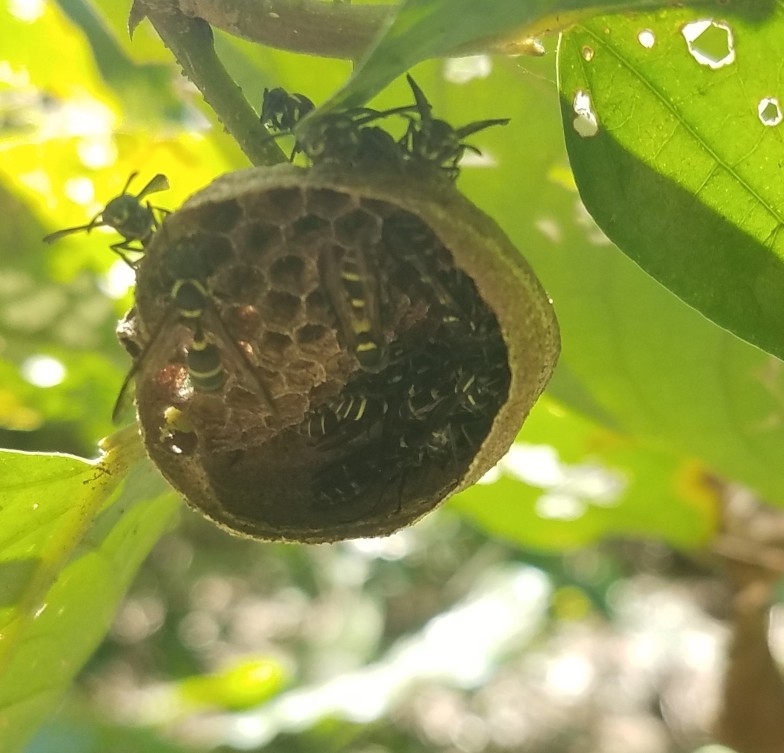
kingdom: Animalia
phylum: Arthropoda
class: Insecta
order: Hymenoptera
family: Eumenidae
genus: Polybia
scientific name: Polybia occidentalis
